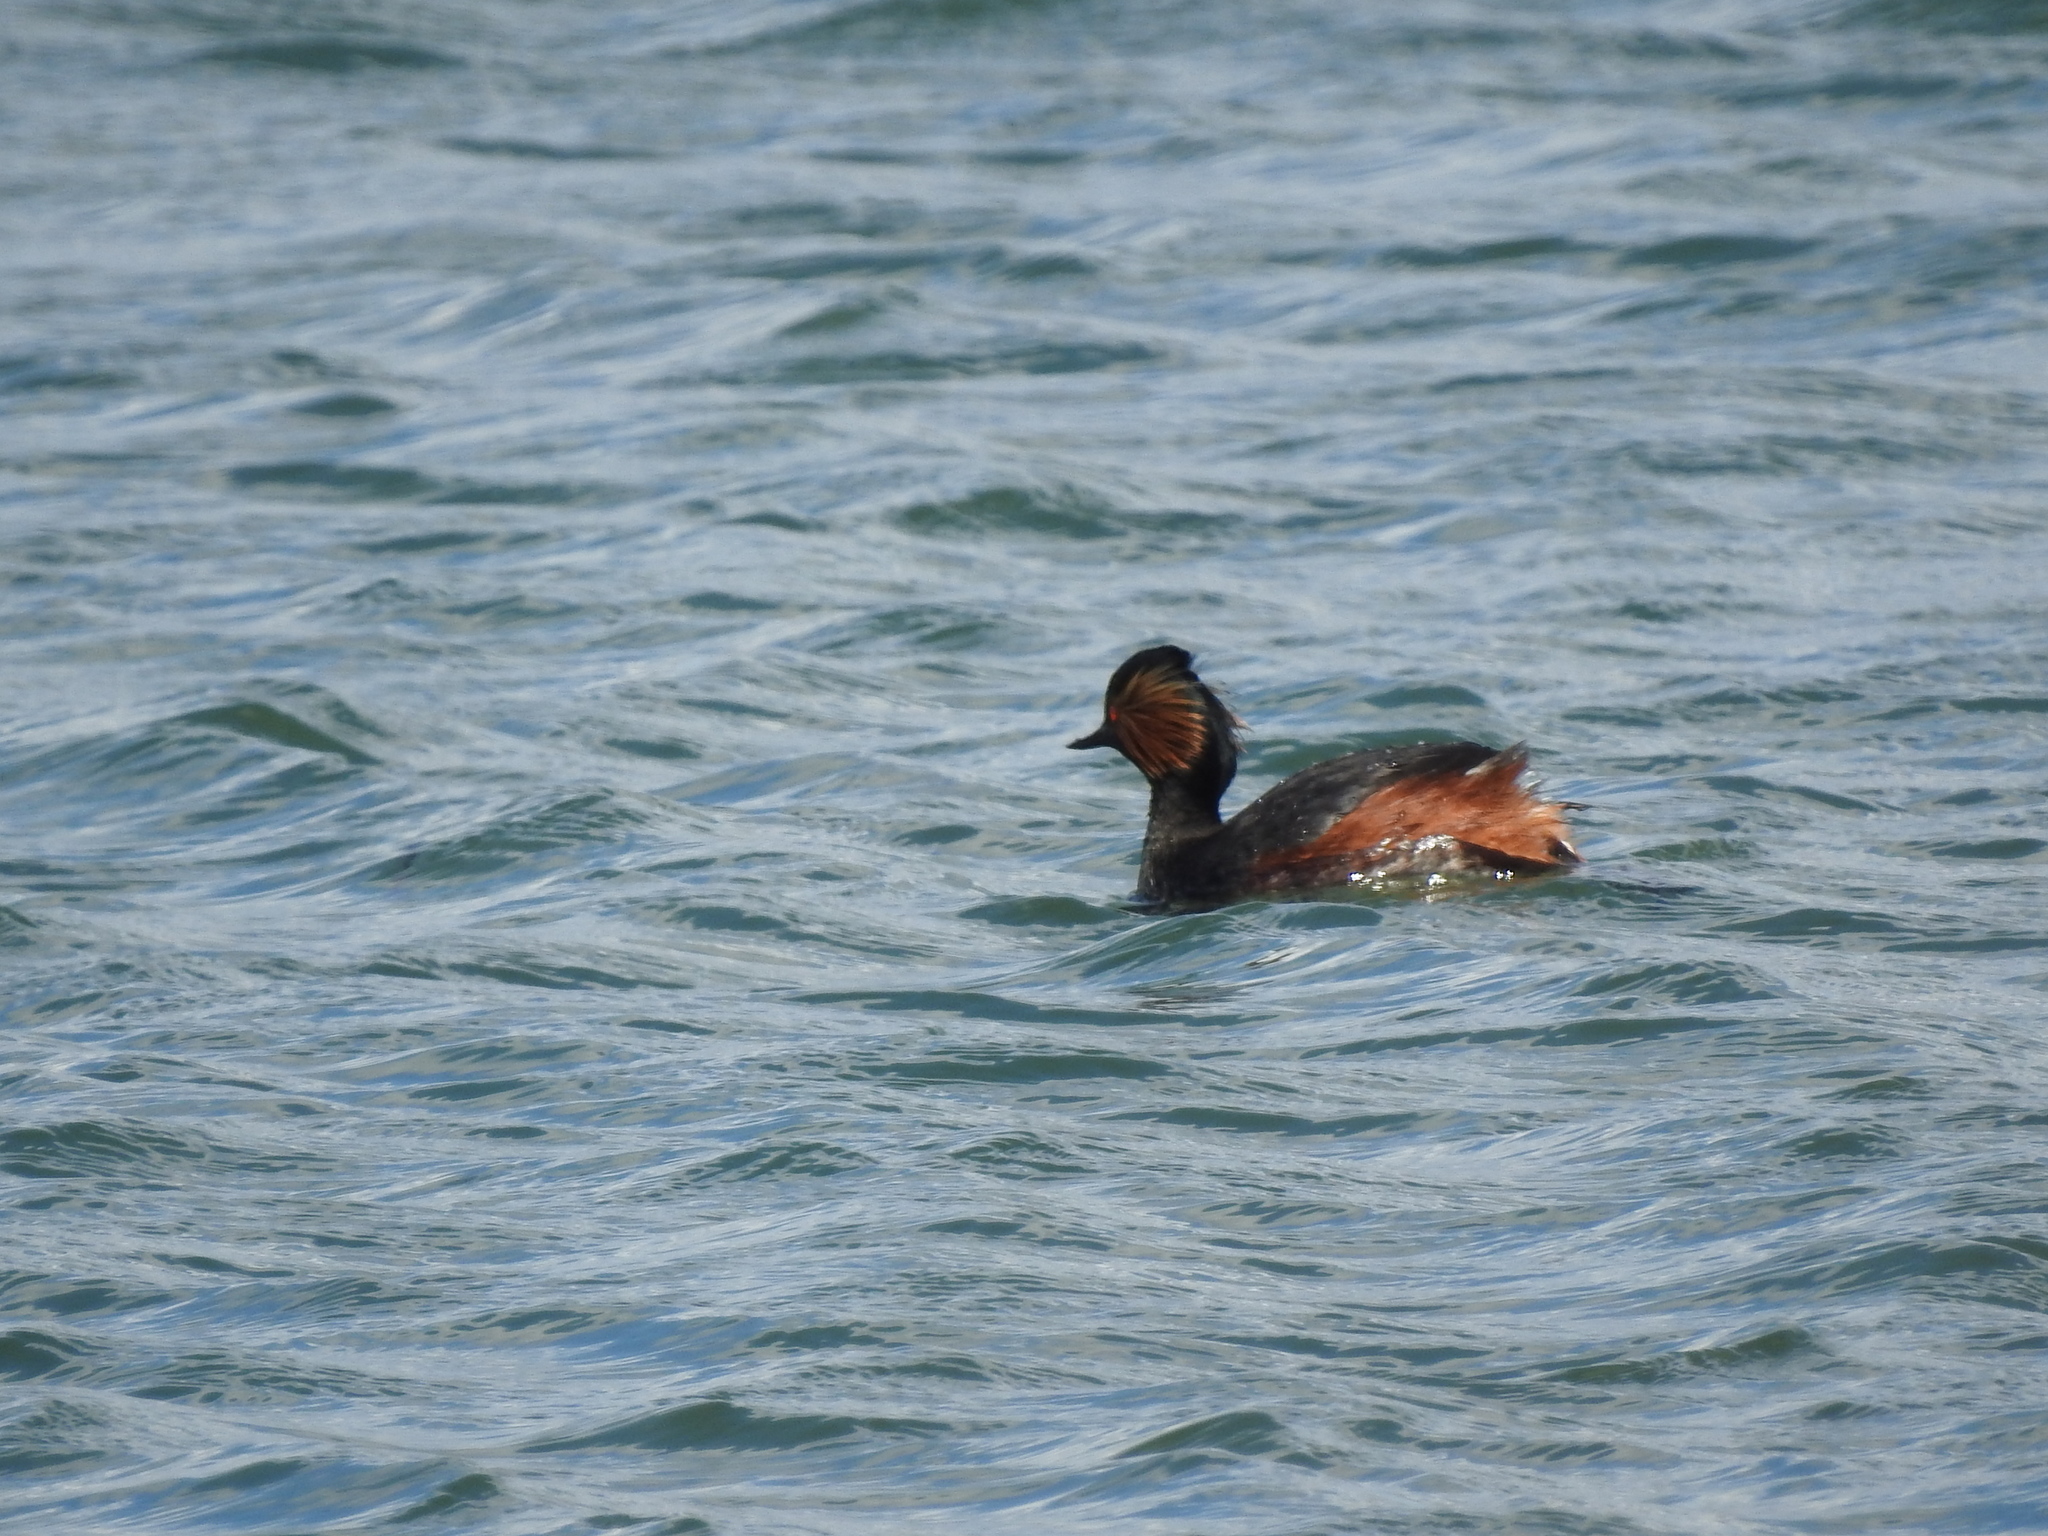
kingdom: Animalia
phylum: Chordata
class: Aves
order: Podicipediformes
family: Podicipedidae
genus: Podiceps
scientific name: Podiceps nigricollis
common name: Black-necked grebe
